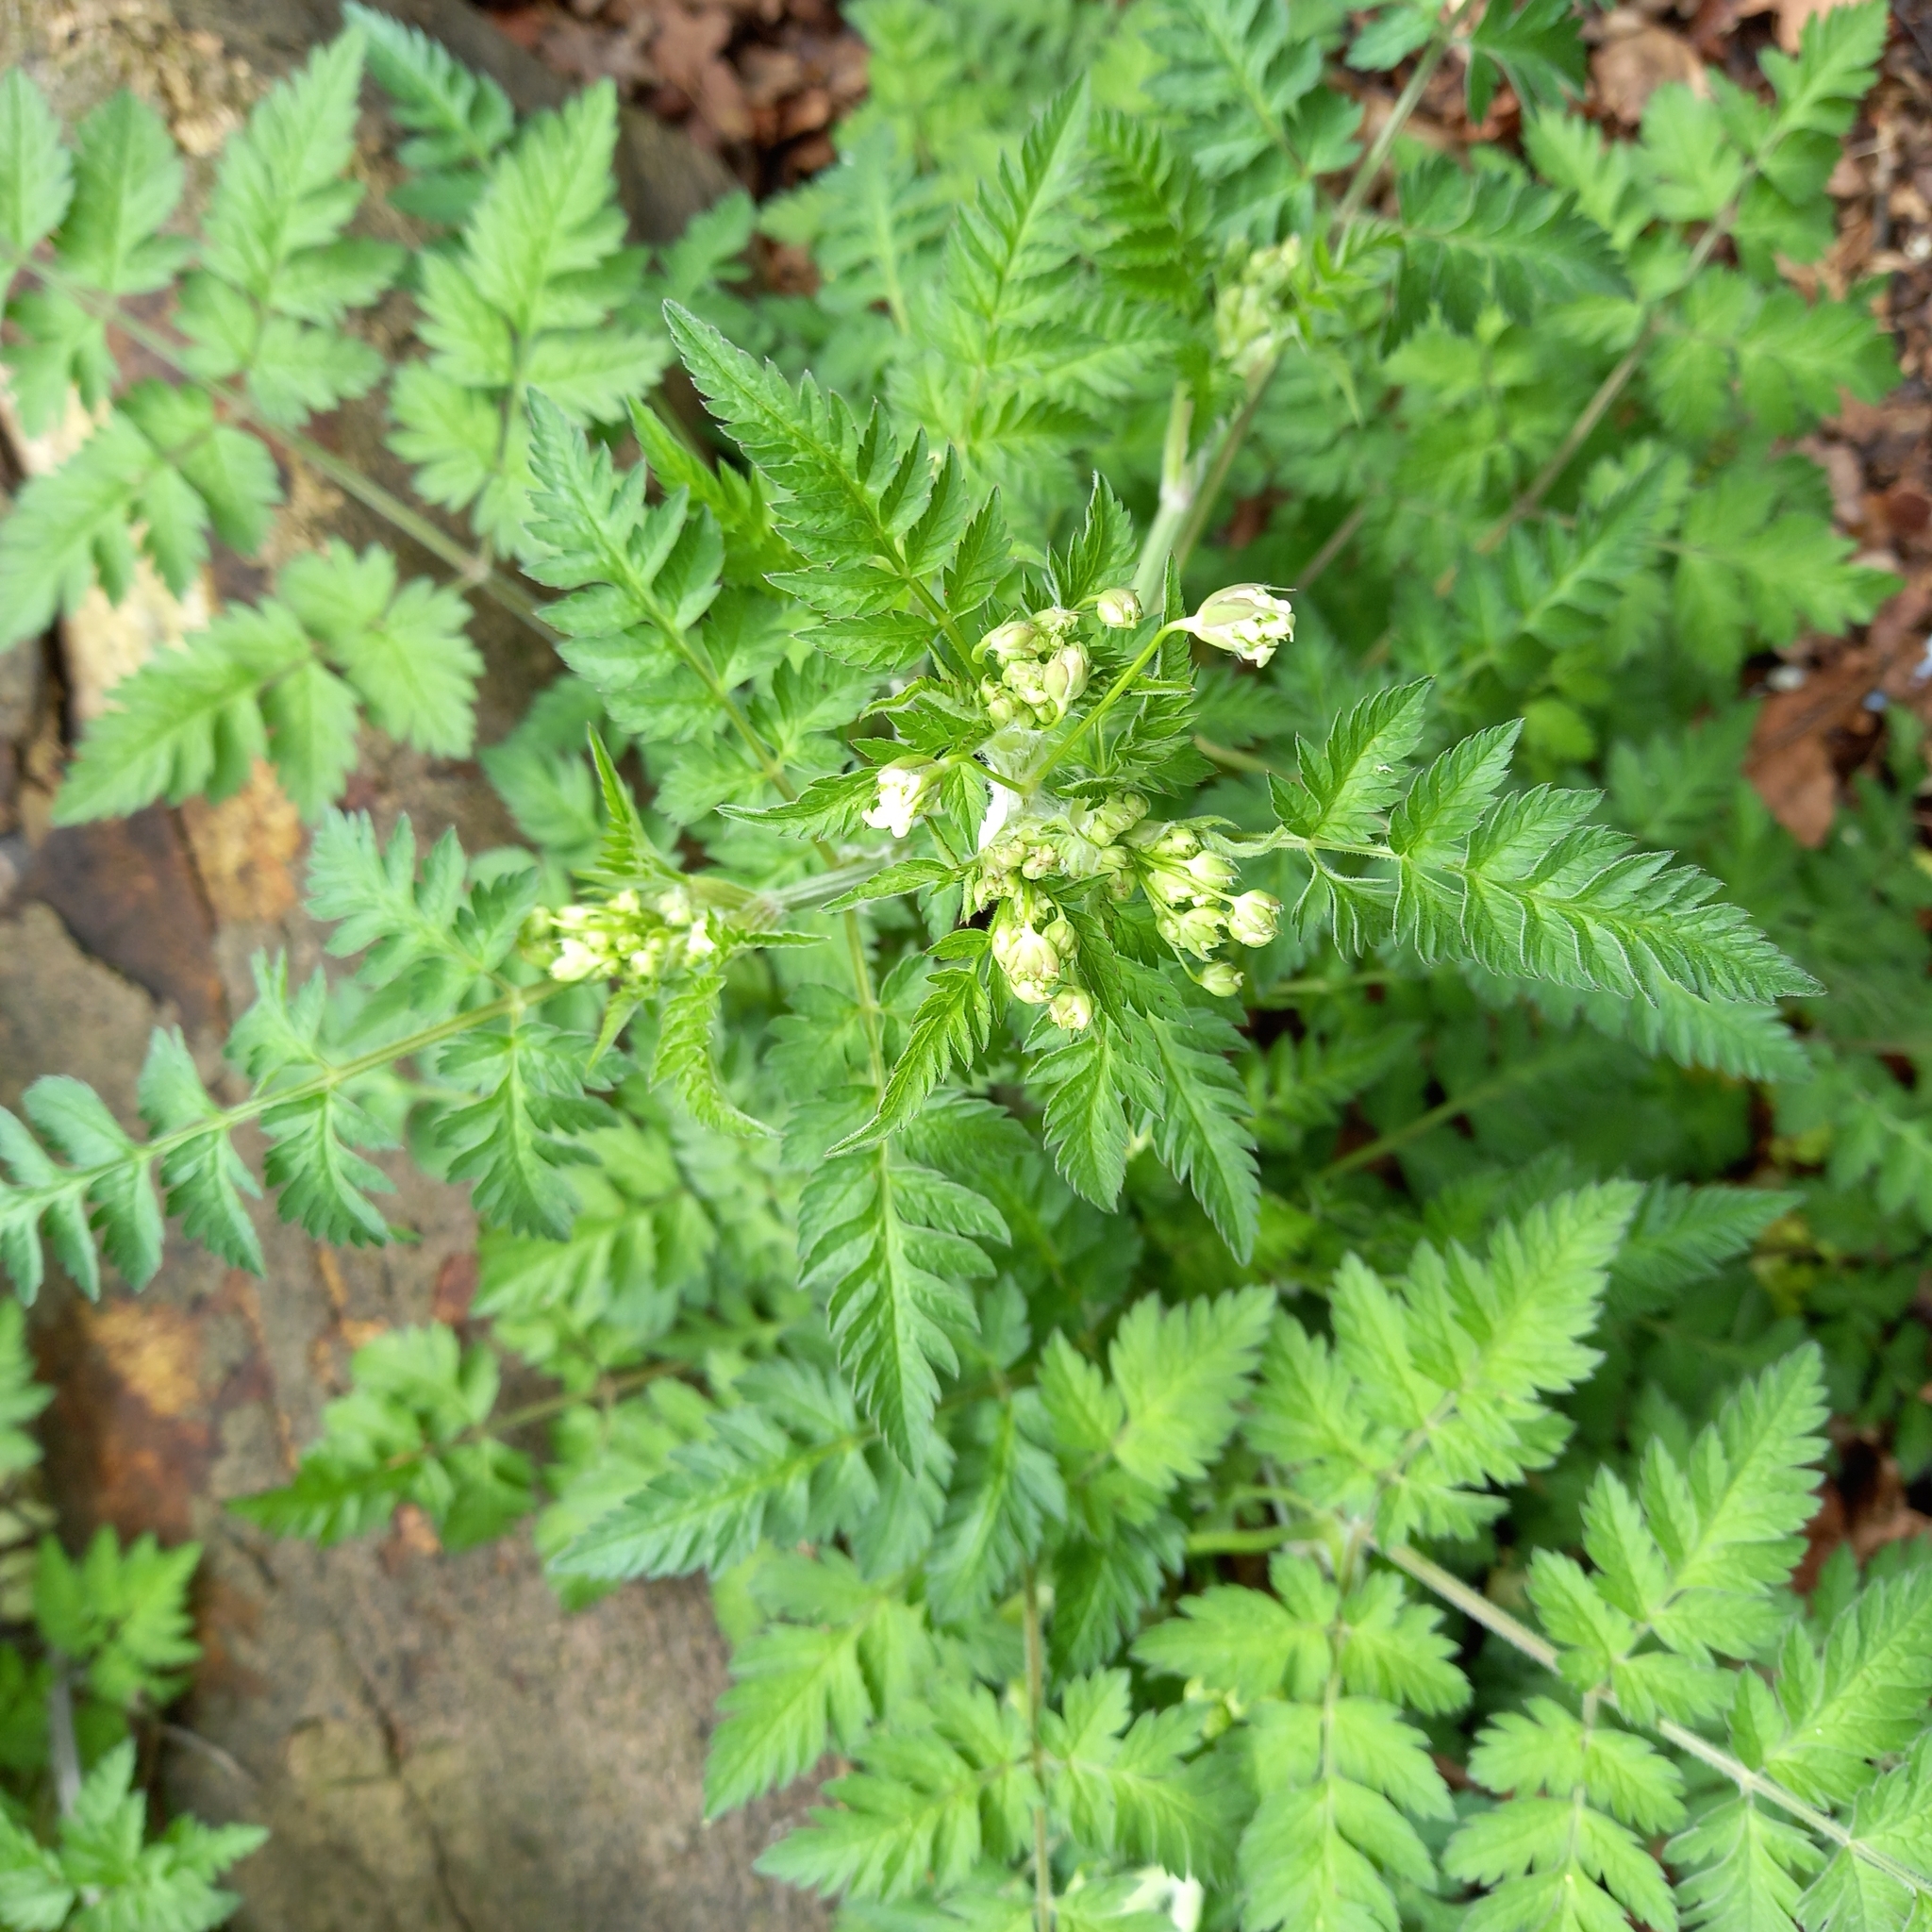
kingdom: Plantae
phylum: Tracheophyta
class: Magnoliopsida
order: Apiales
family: Apiaceae
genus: Anthriscus
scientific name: Anthriscus sylvestris
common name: Cow parsley
